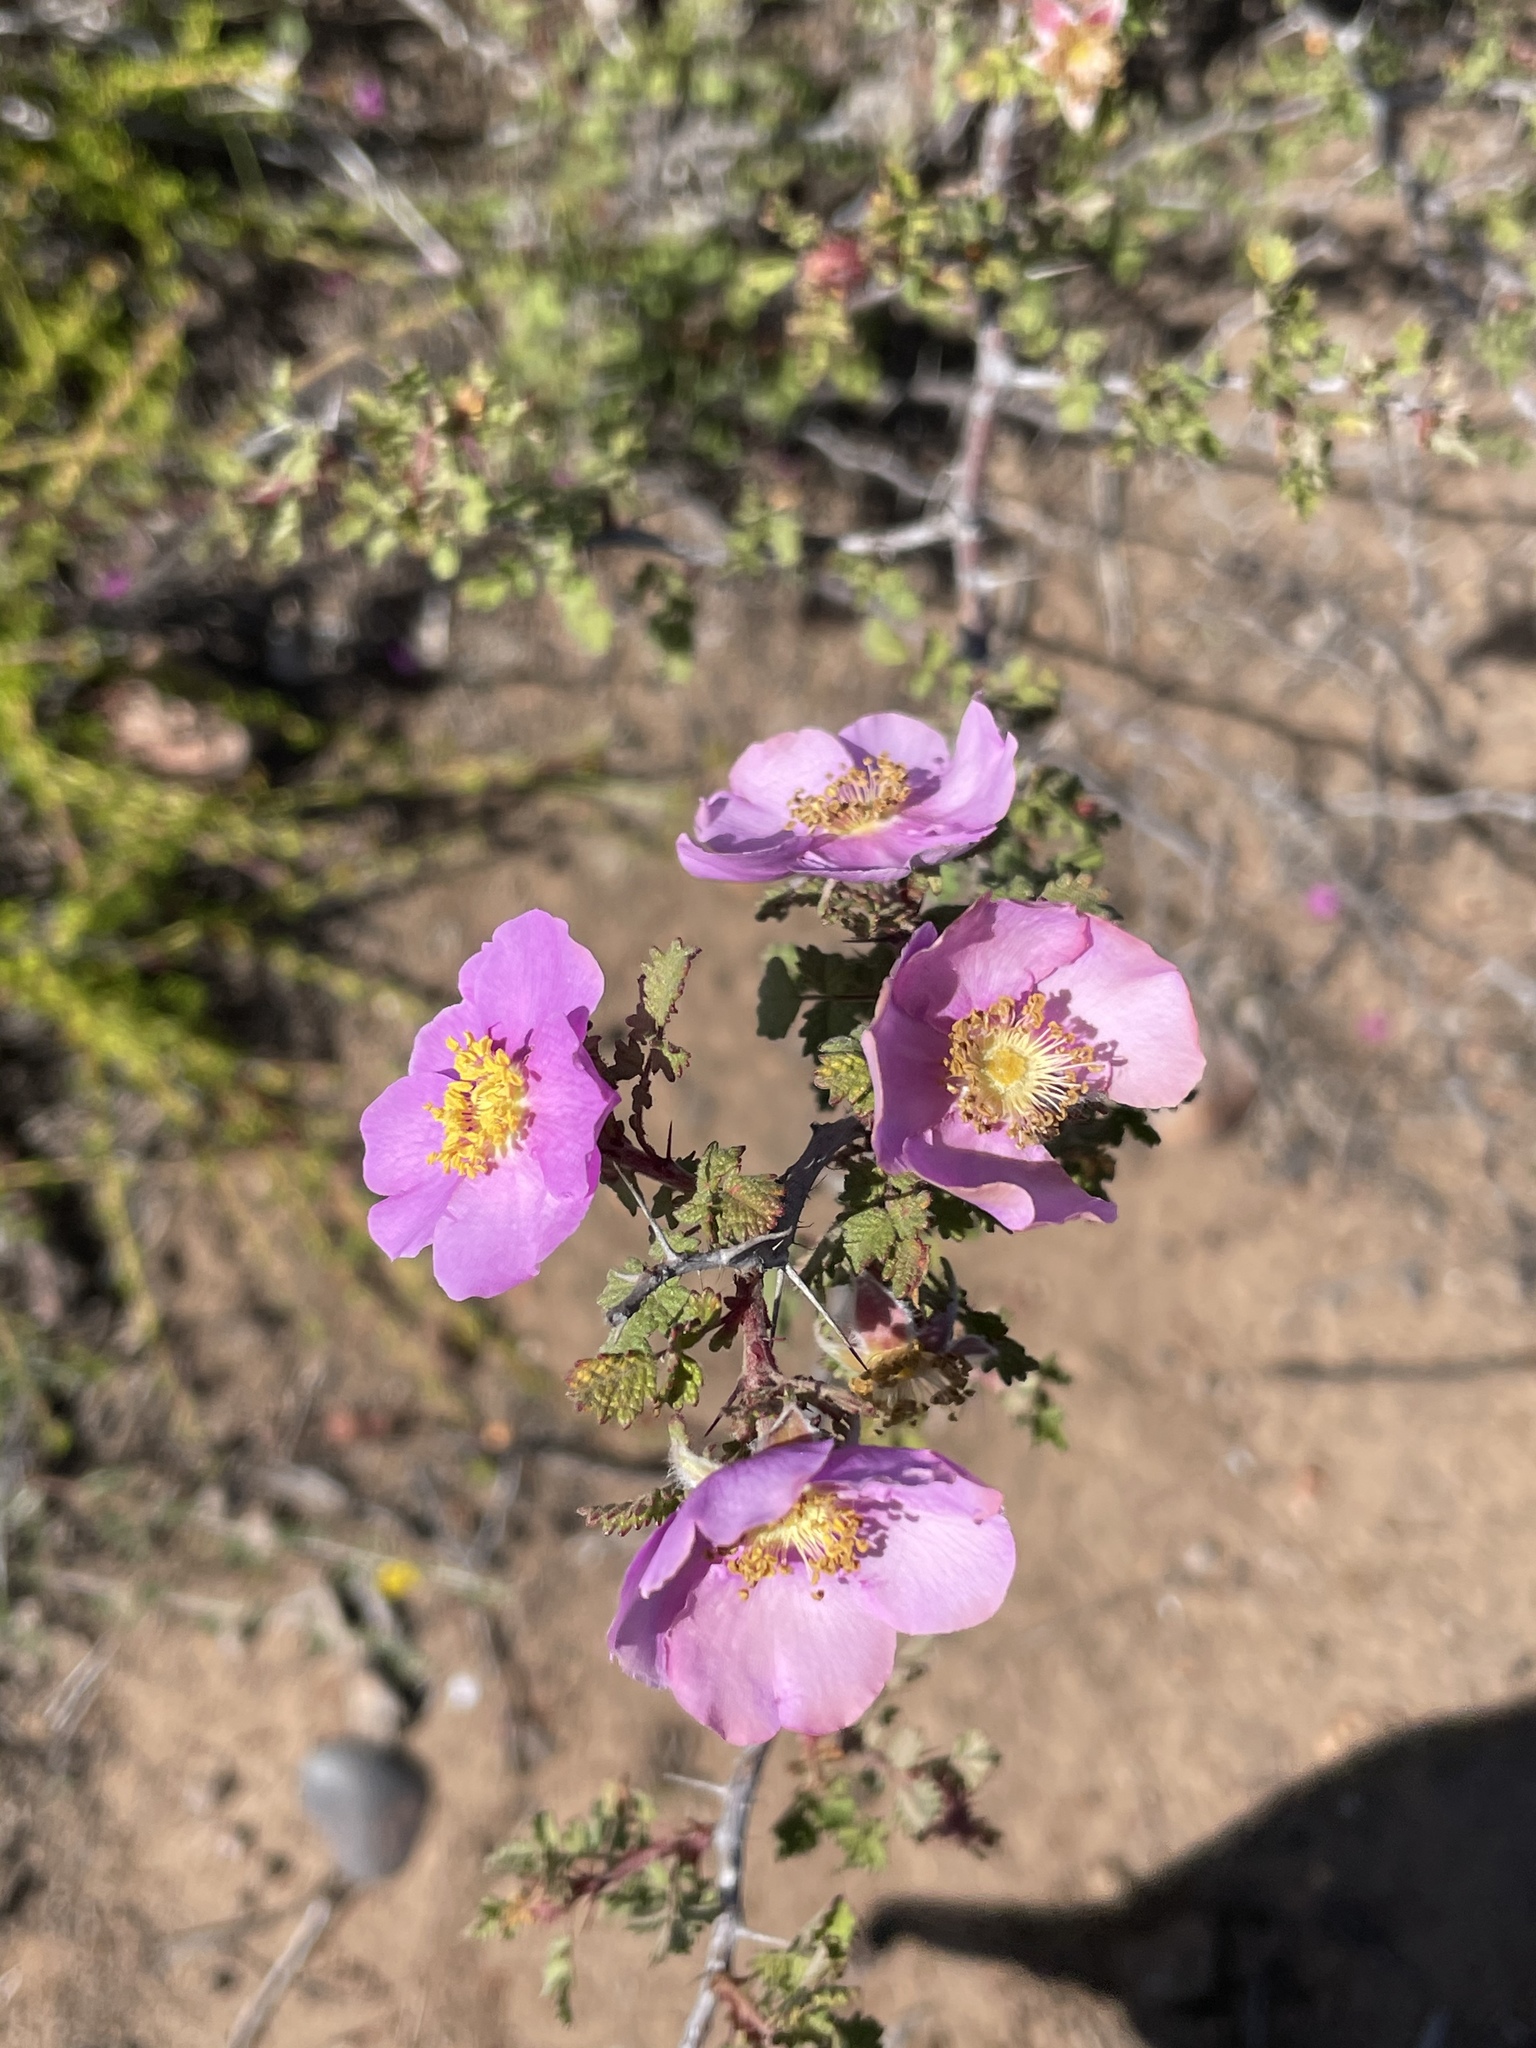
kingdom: Plantae
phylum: Tracheophyta
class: Magnoliopsida
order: Rosales
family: Rosaceae
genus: Rosa
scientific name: Rosa minutifolia
